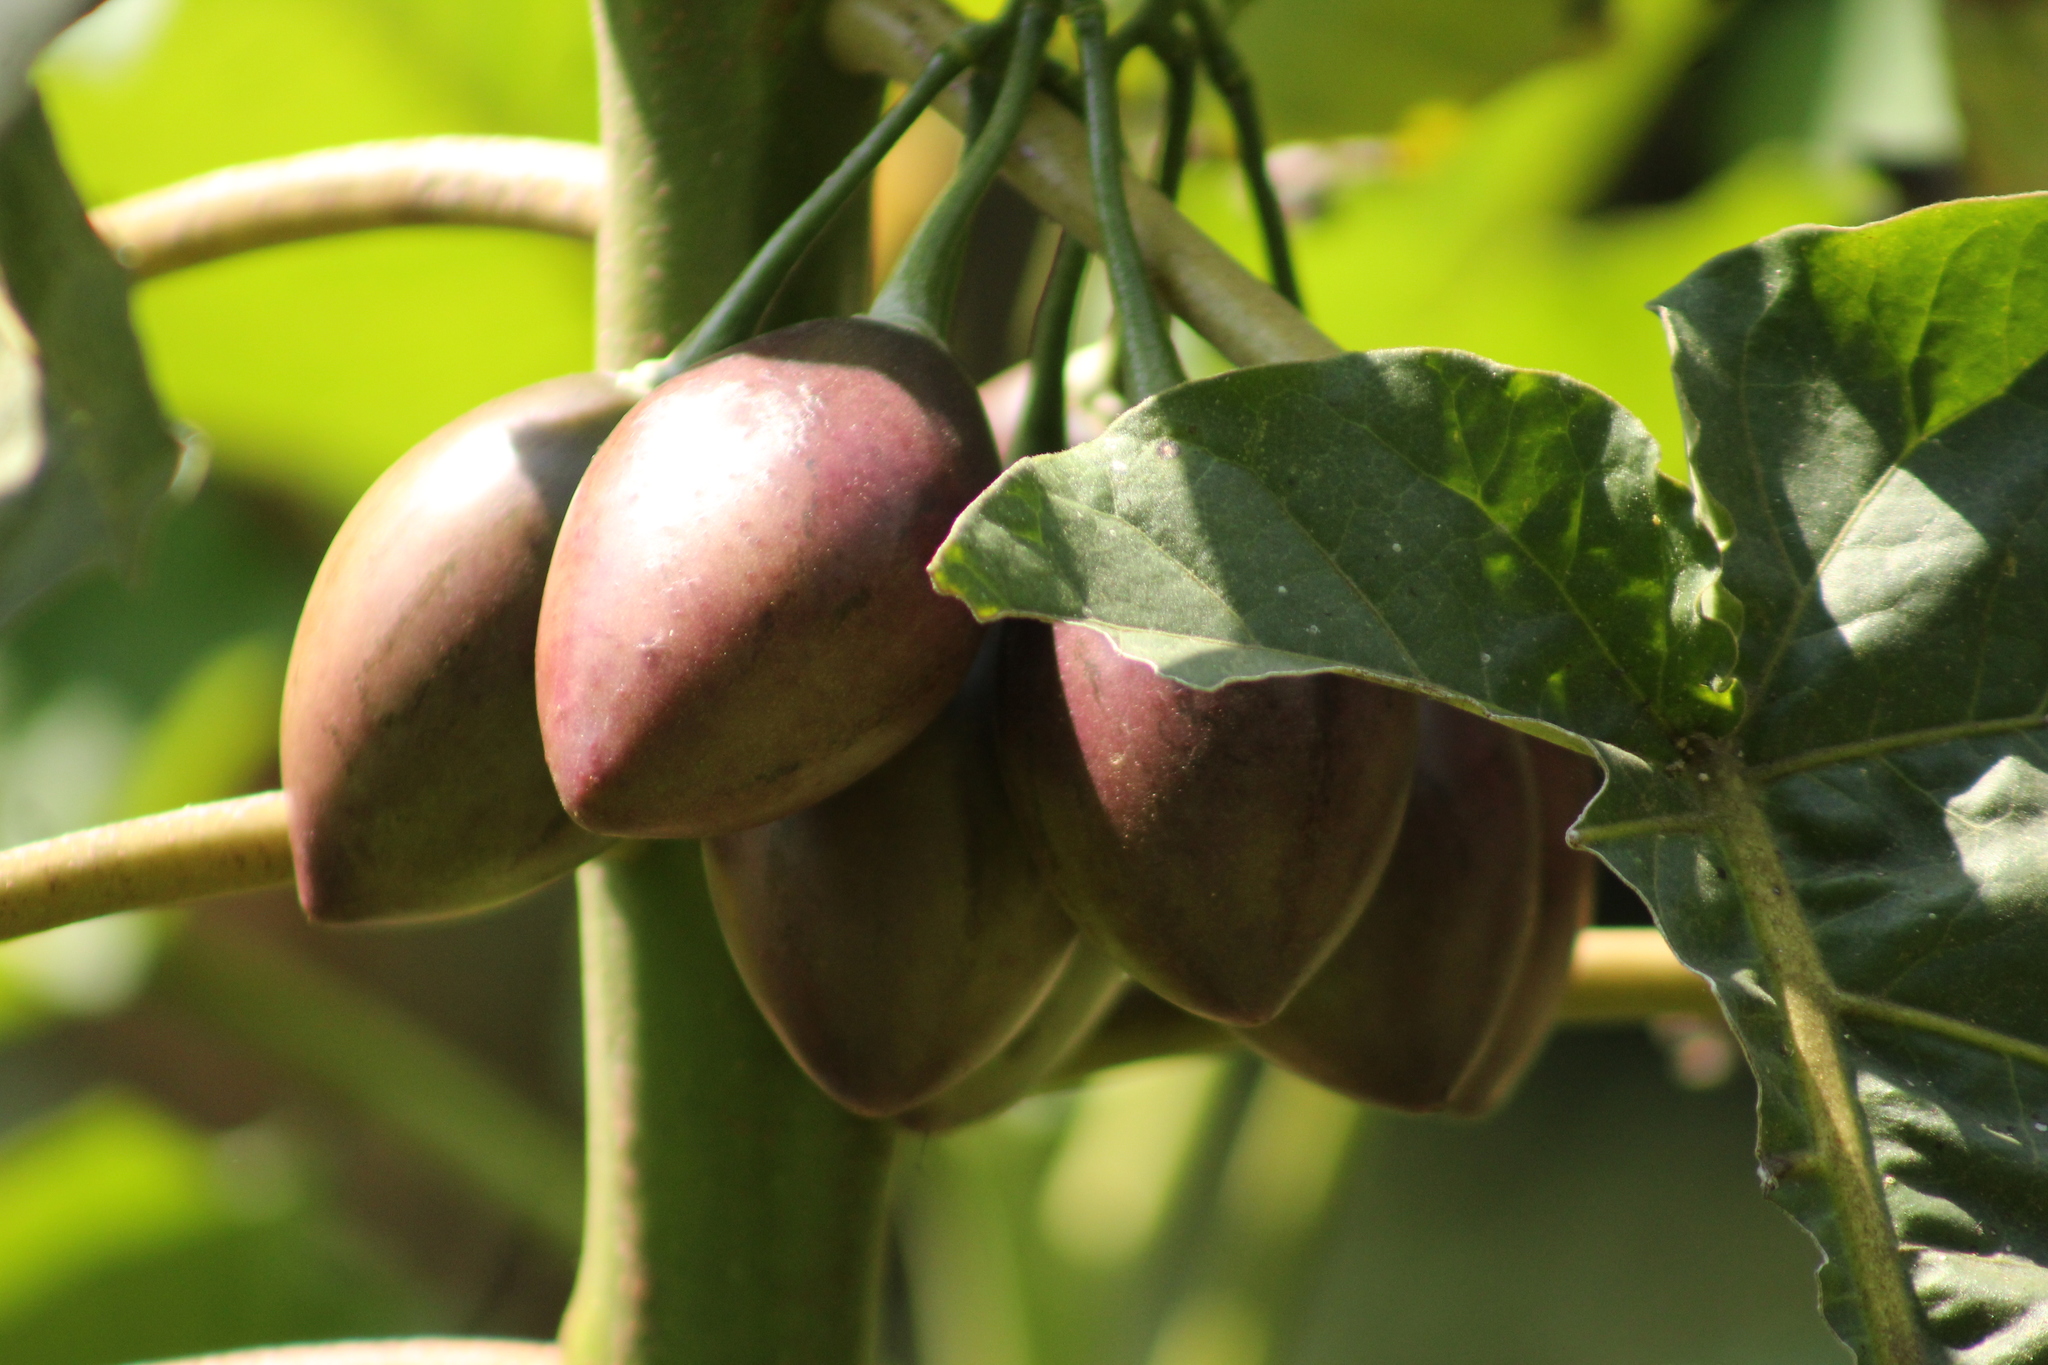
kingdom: Plantae
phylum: Tracheophyta
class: Magnoliopsida
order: Solanales
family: Solanaceae
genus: Solanum
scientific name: Solanum betaceum
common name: Tamarillo
